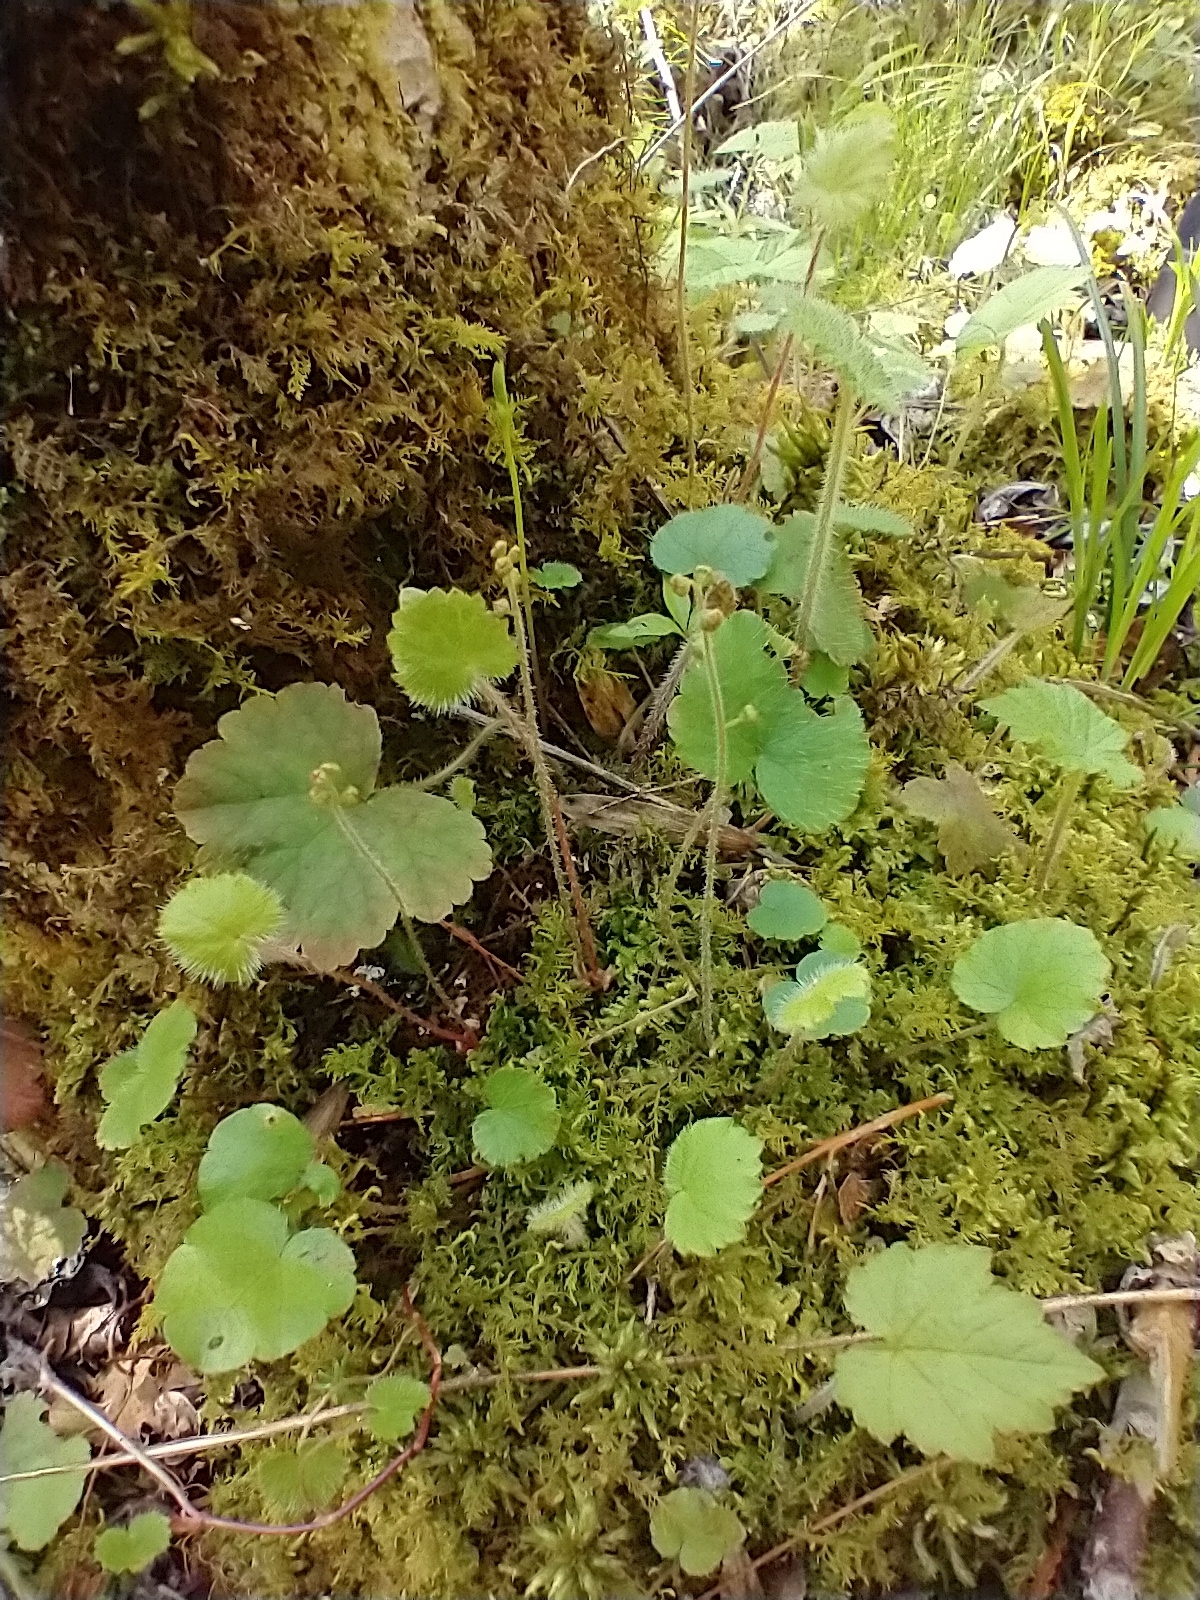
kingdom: Plantae
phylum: Tracheophyta
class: Magnoliopsida
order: Saxifragales
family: Saxifragaceae
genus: Mitella
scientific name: Mitella nuda
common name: Bare-stemmed bishop's-cap
